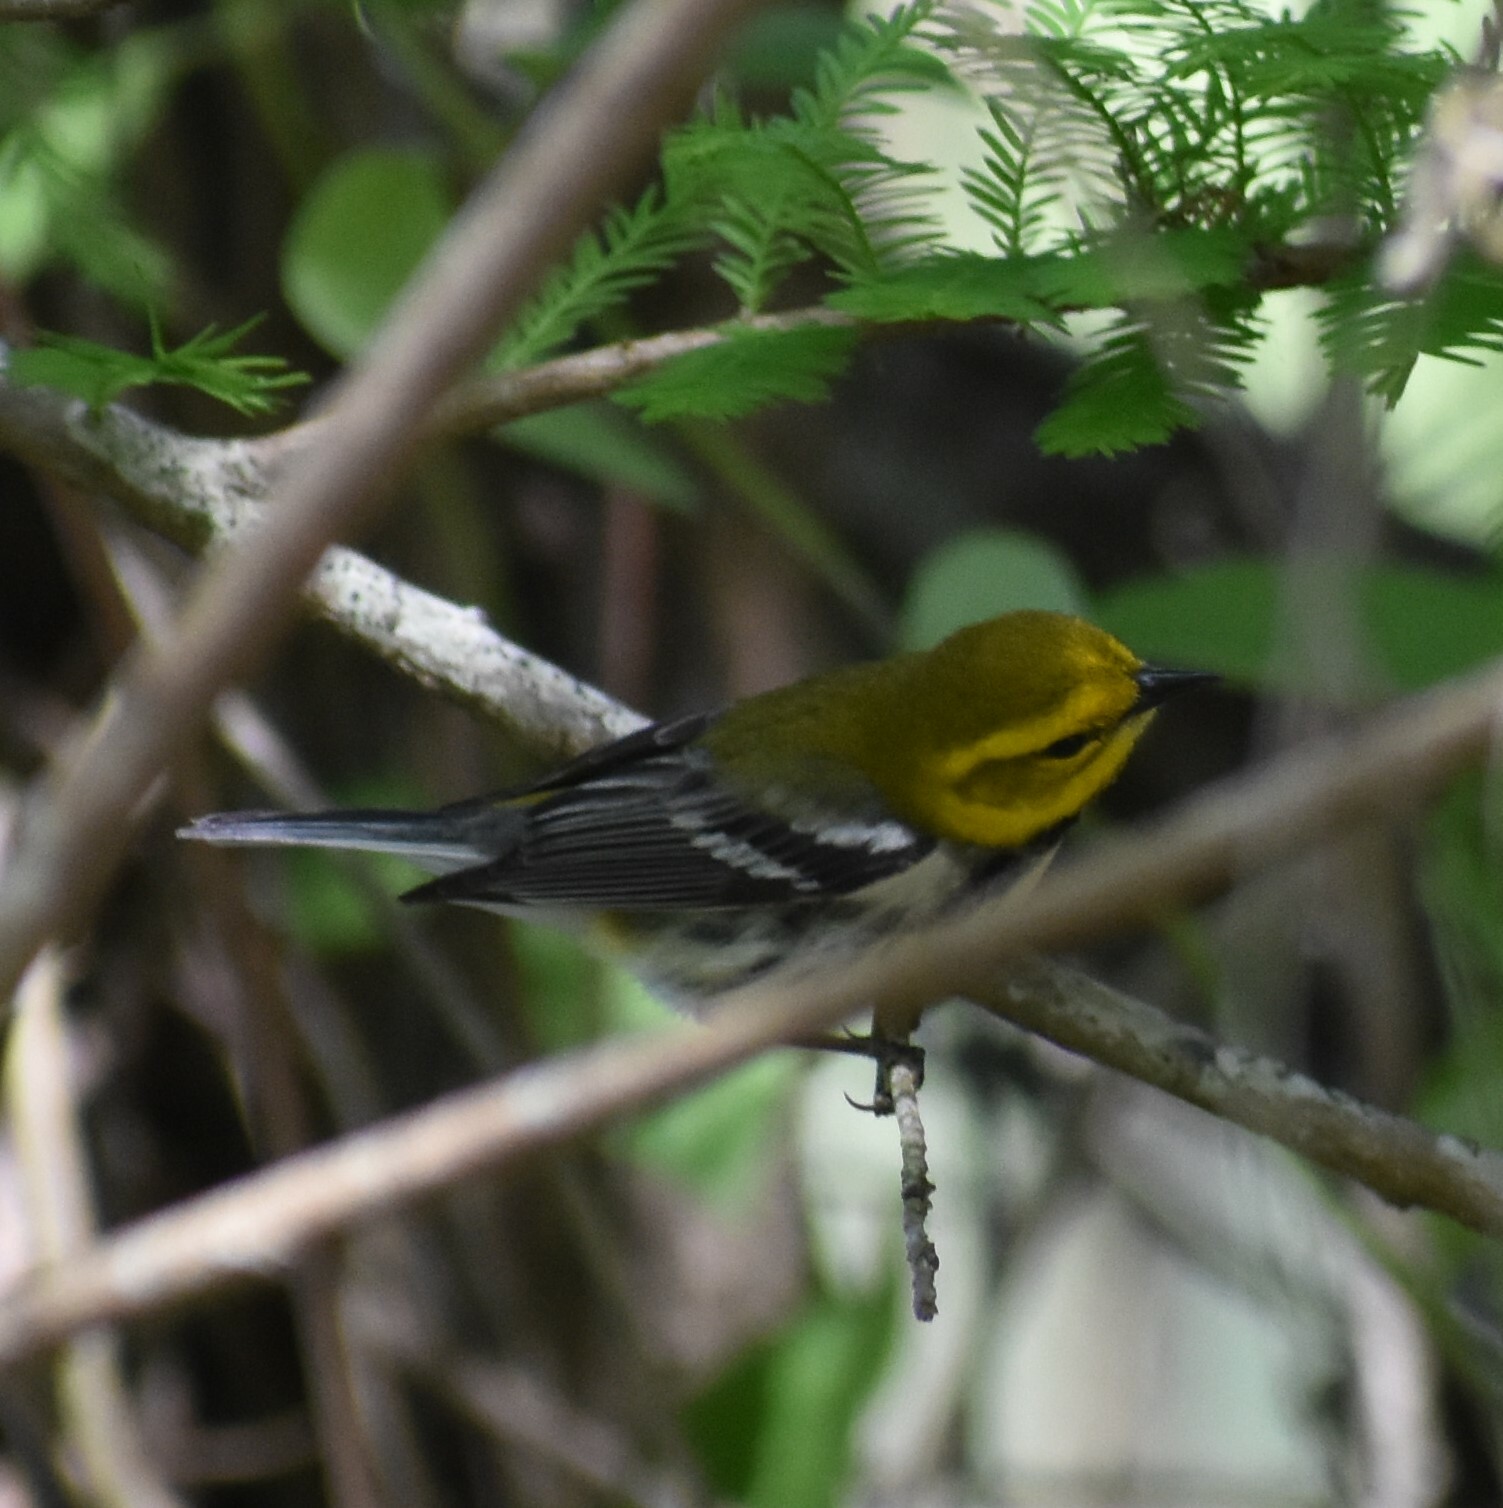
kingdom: Animalia
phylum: Chordata
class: Aves
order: Passeriformes
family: Parulidae
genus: Setophaga
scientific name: Setophaga virens
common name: Black-throated green warbler
